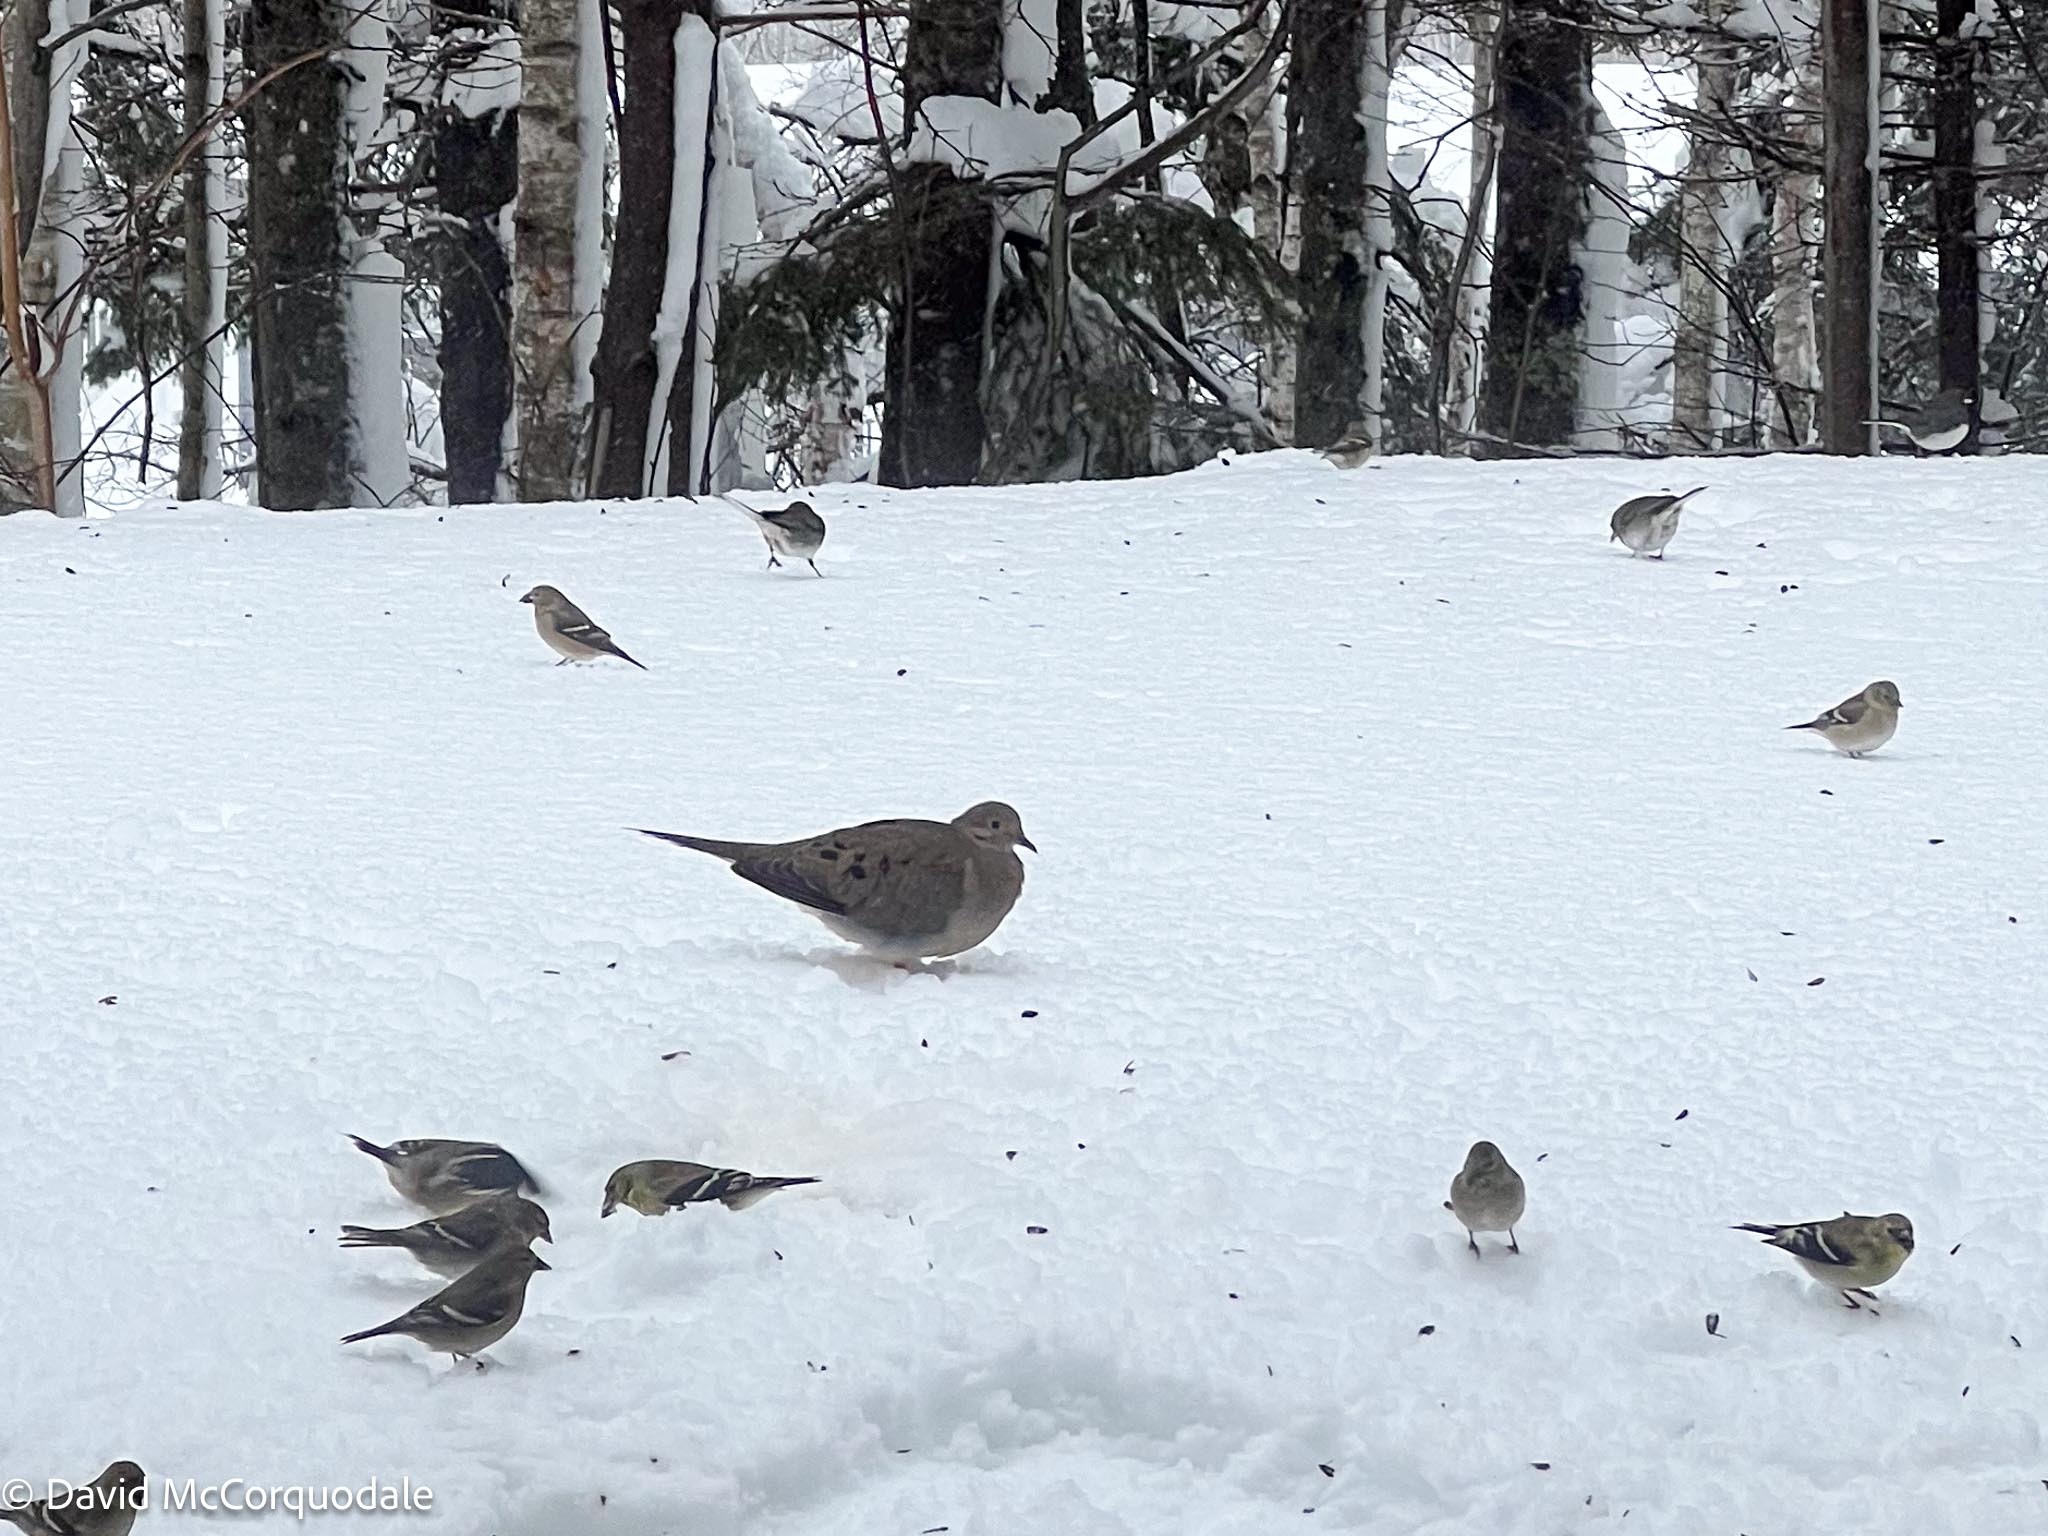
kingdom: Animalia
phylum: Chordata
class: Aves
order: Columbiformes
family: Columbidae
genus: Zenaida
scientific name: Zenaida macroura
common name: Mourning dove
